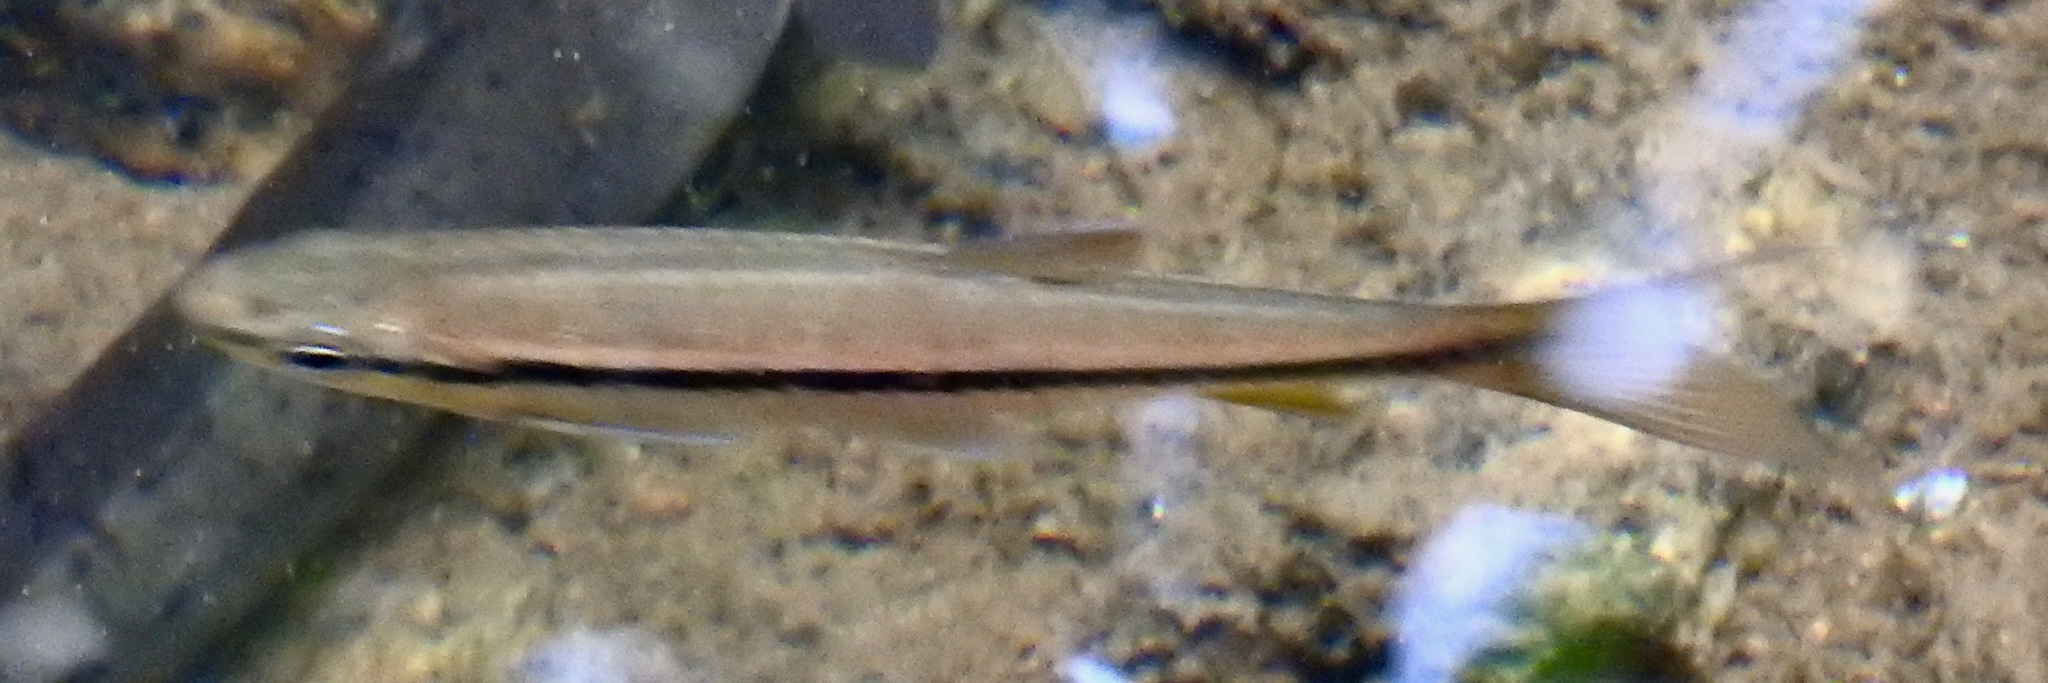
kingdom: Animalia
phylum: Chordata
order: Cypriniformes
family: Cyprinidae
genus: Rasbora
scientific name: Rasbora dandia
